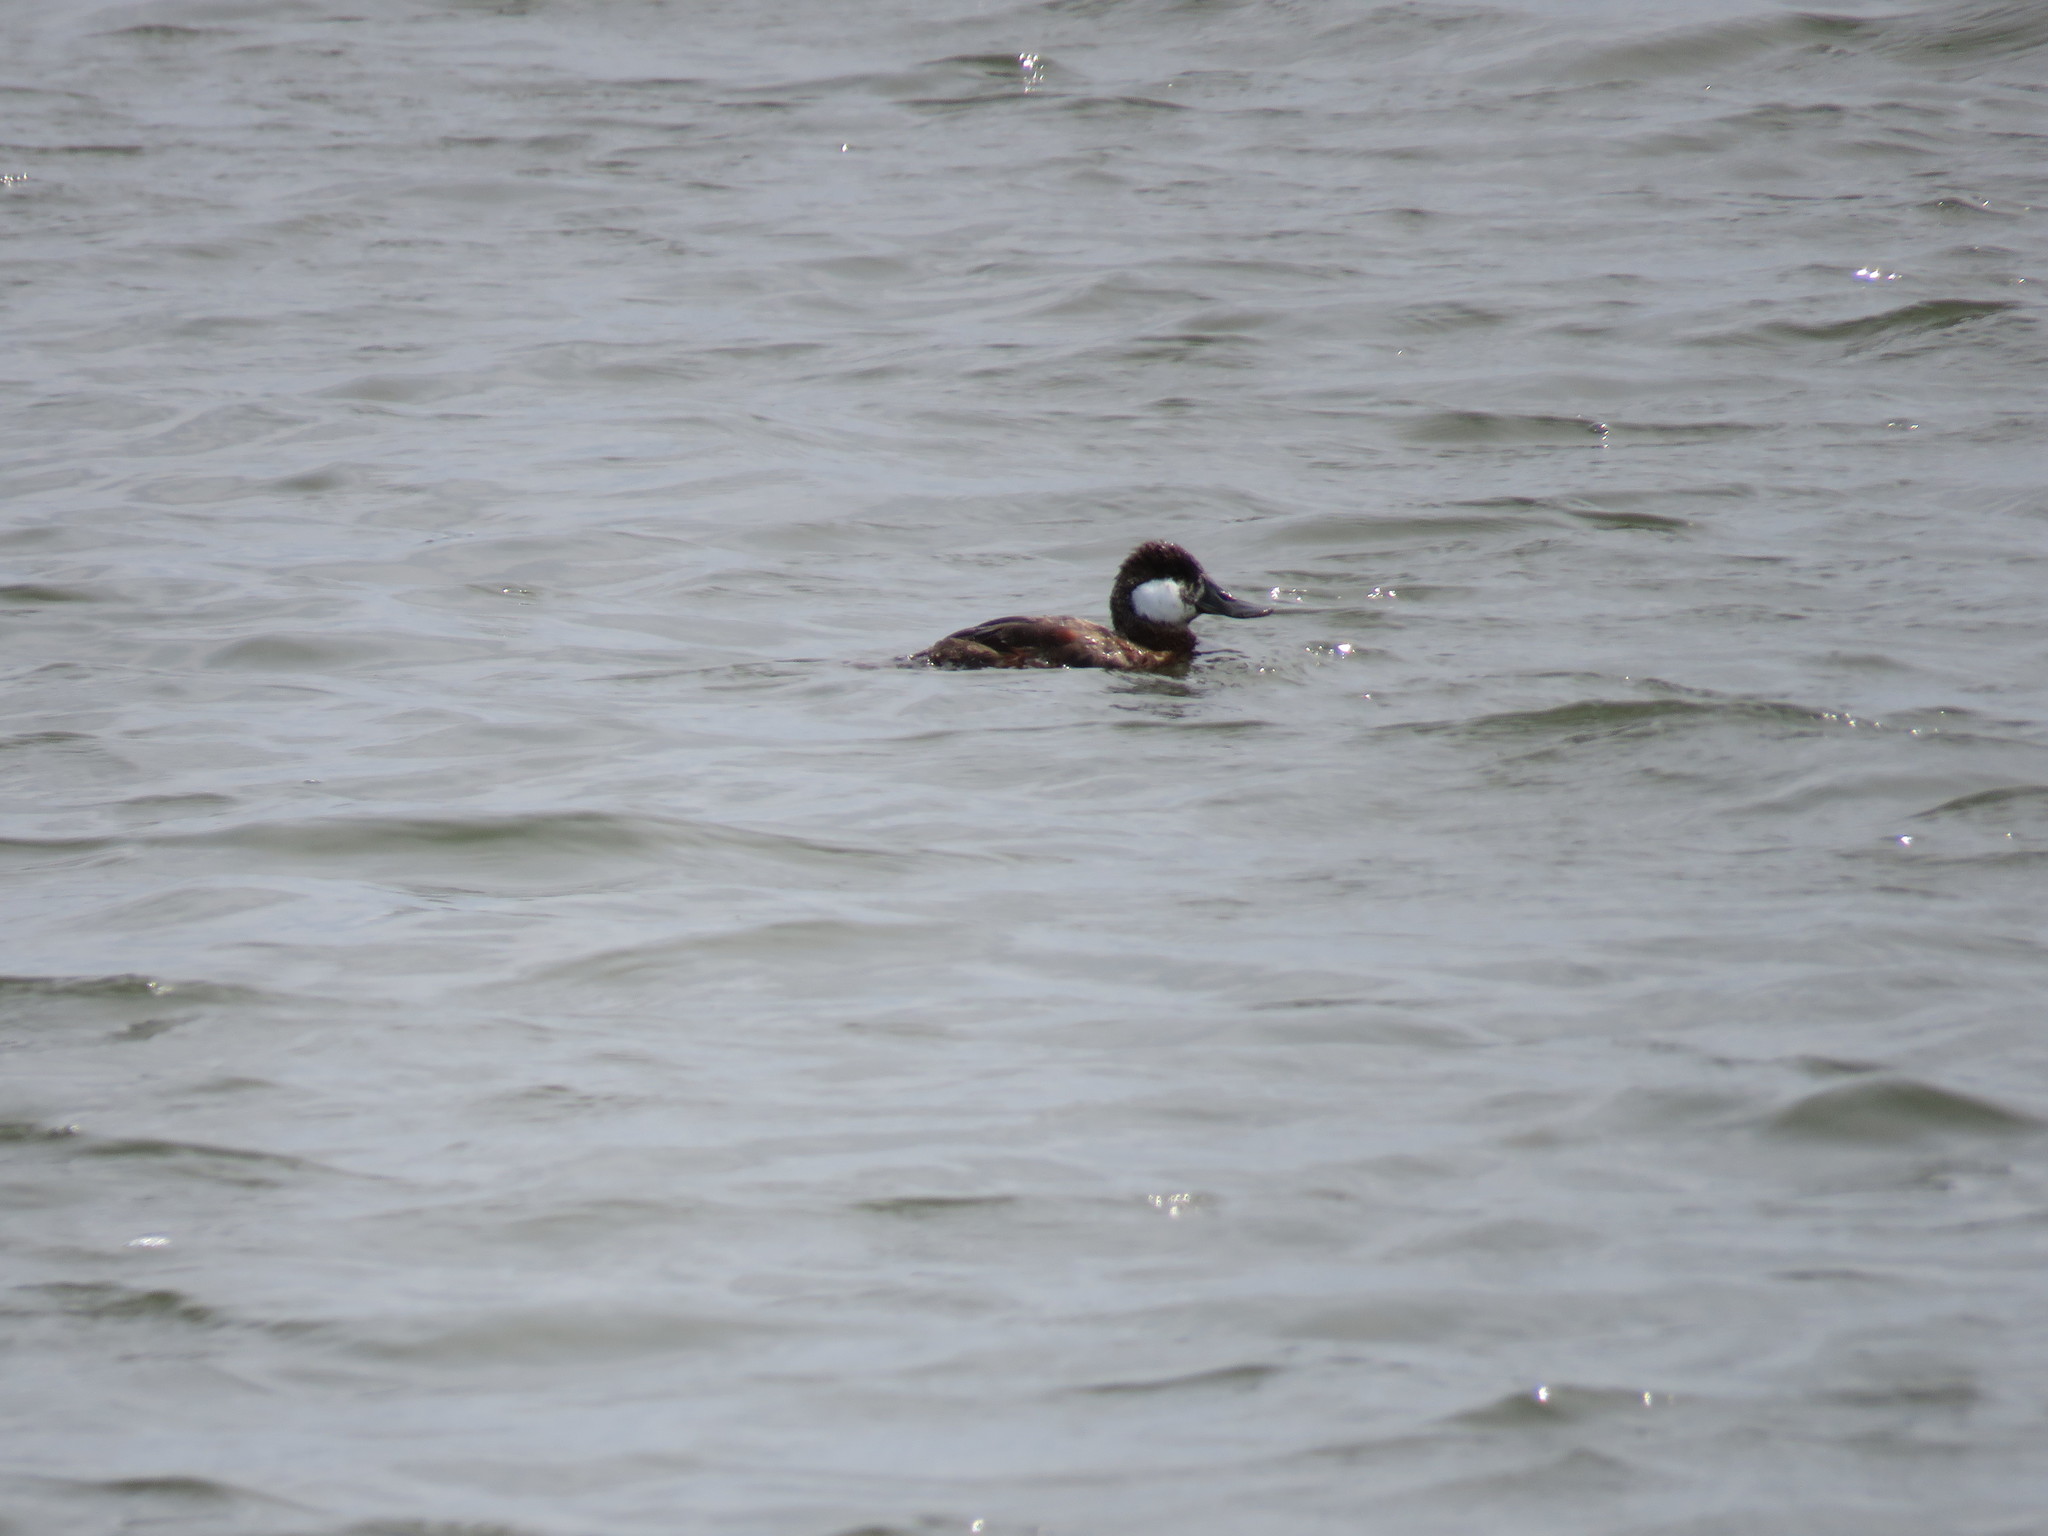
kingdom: Animalia
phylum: Chordata
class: Aves
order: Anseriformes
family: Anatidae
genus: Oxyura
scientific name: Oxyura jamaicensis
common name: Ruddy duck
